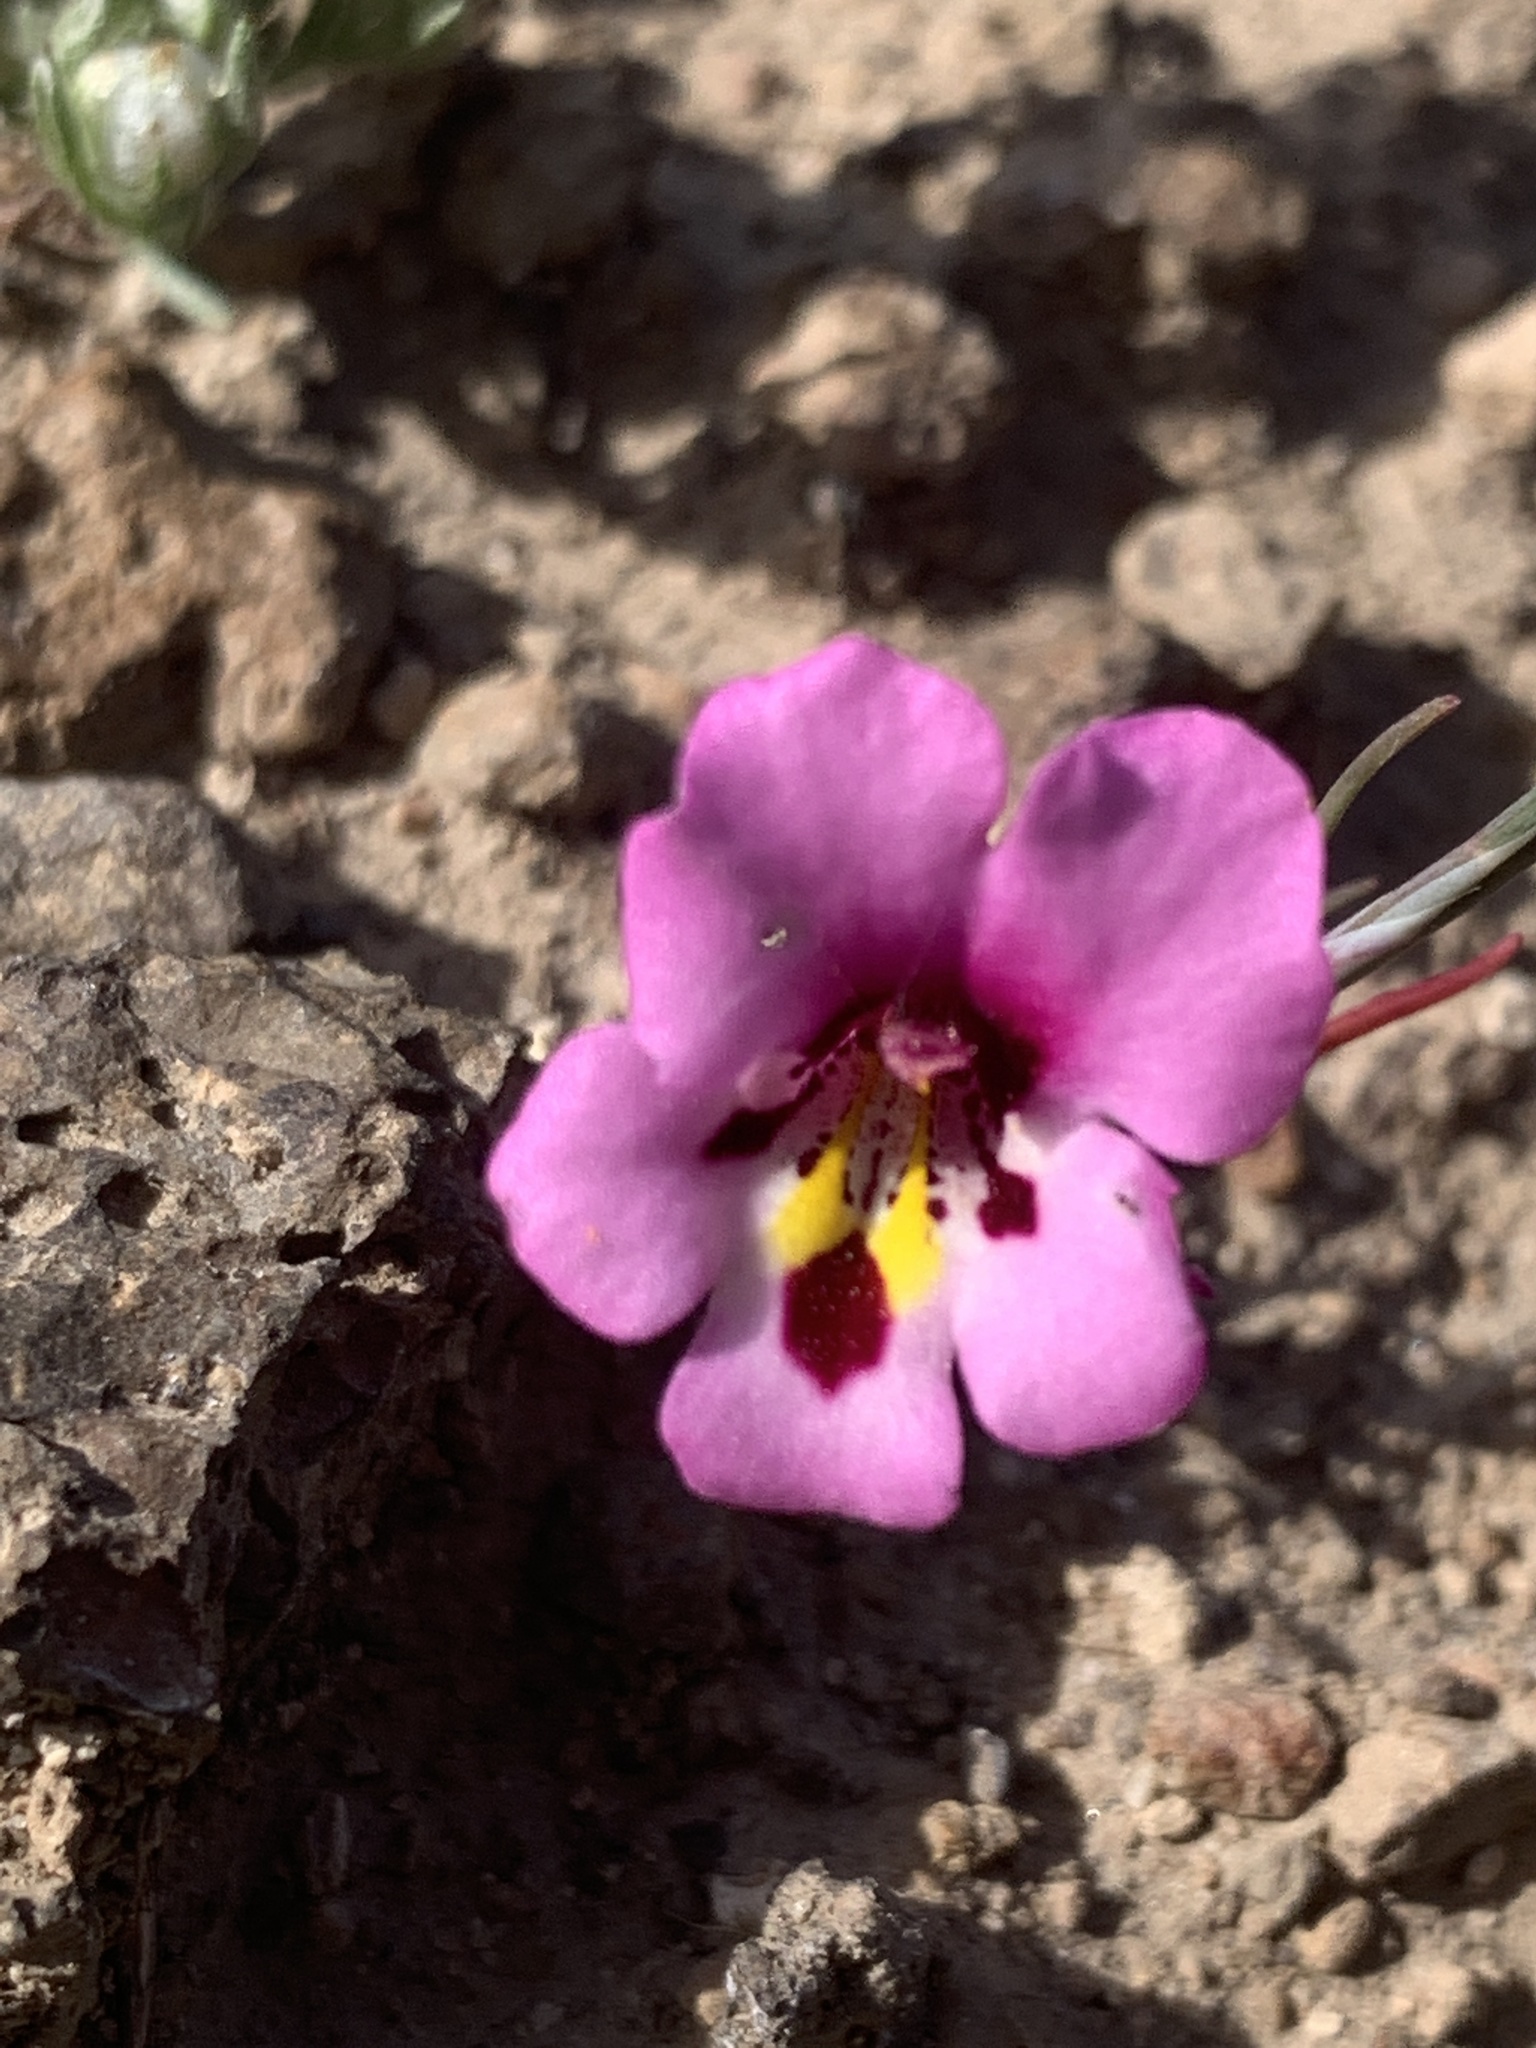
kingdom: Plantae
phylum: Tracheophyta
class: Magnoliopsida
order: Lamiales
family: Phrymaceae
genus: Diplacus
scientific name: Diplacus angustatus
